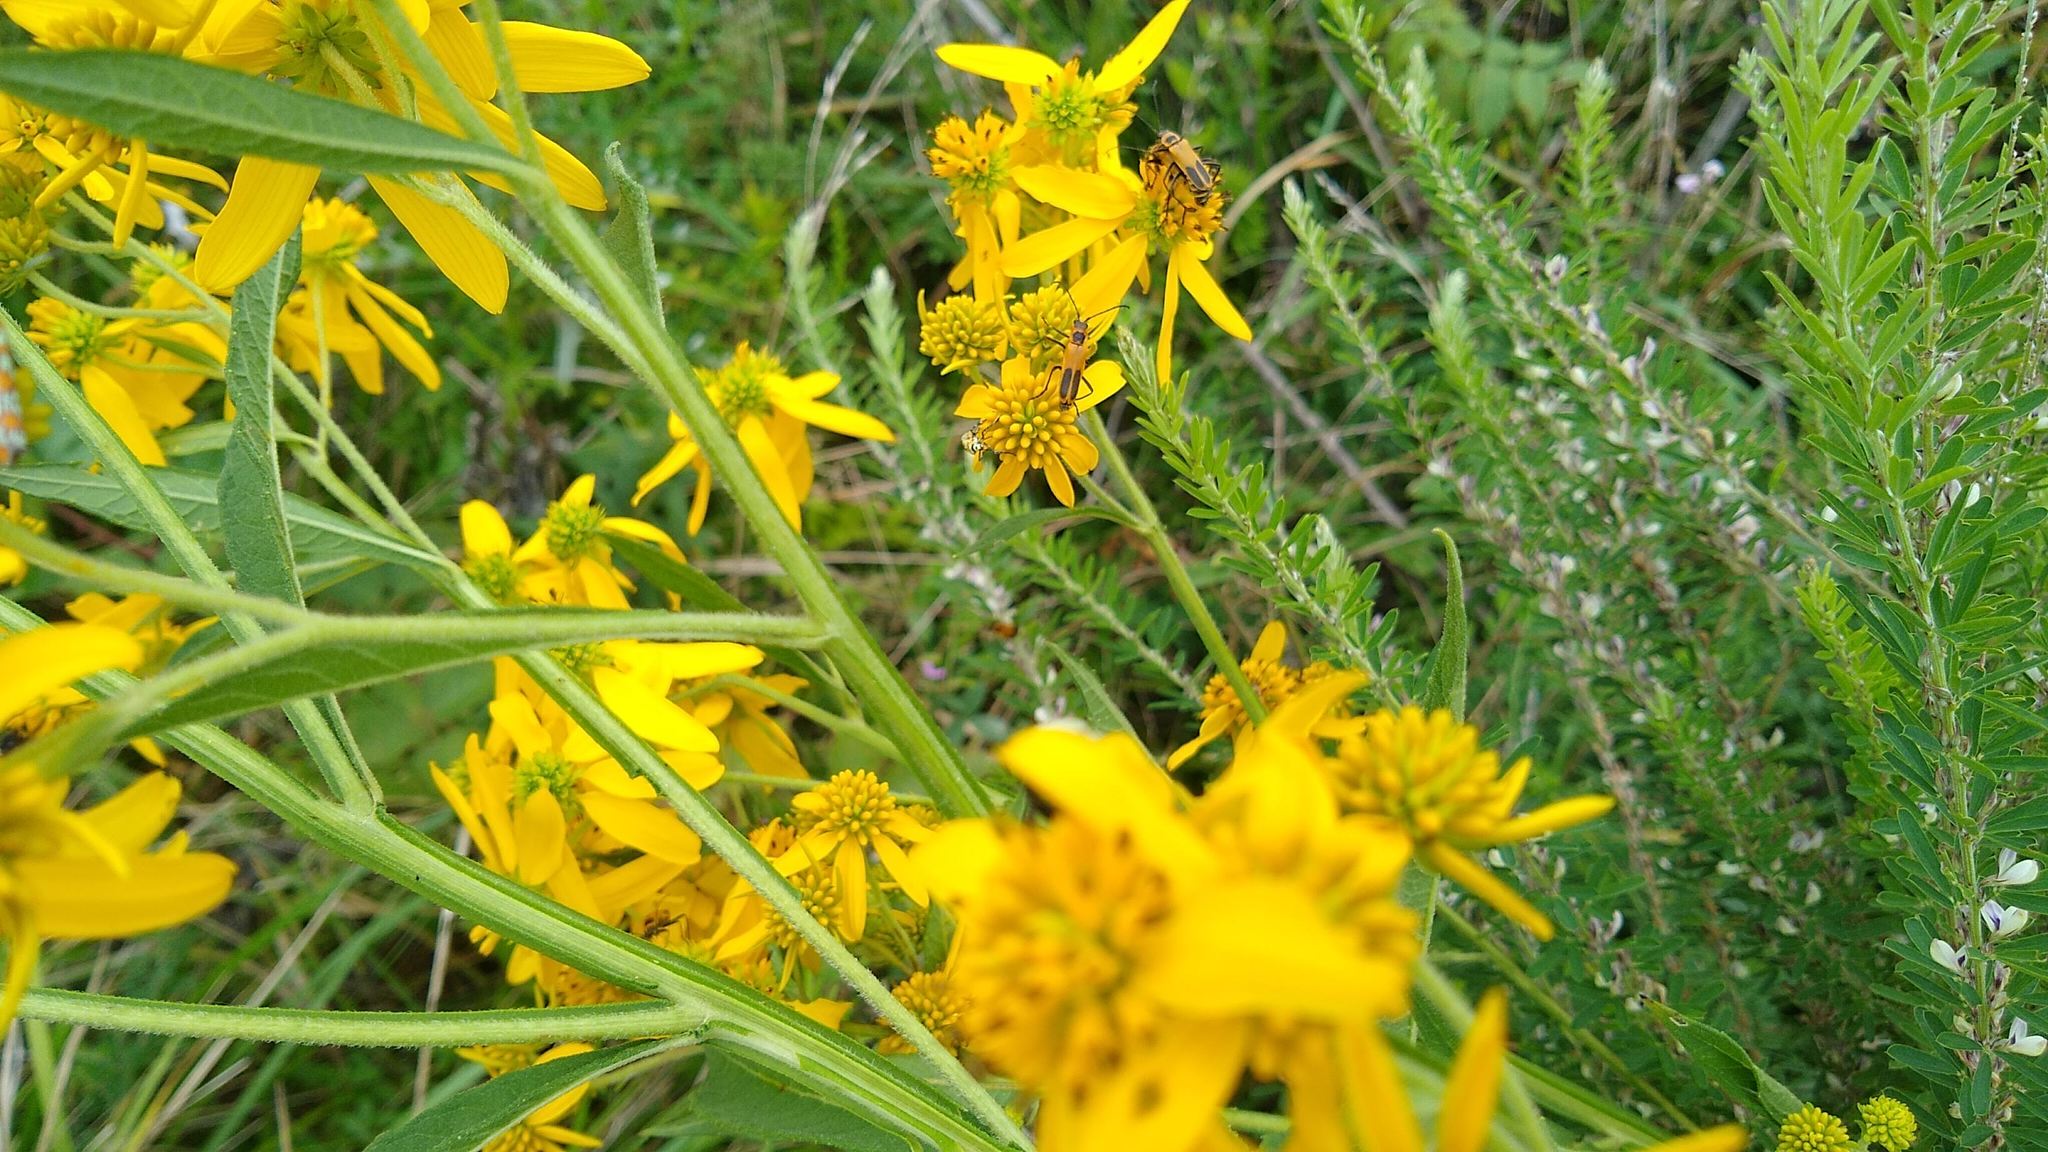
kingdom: Animalia
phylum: Arthropoda
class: Insecta
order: Coleoptera
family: Cantharidae
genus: Chauliognathus
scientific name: Chauliognathus pensylvanicus
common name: Goldenrod soldier beetle
